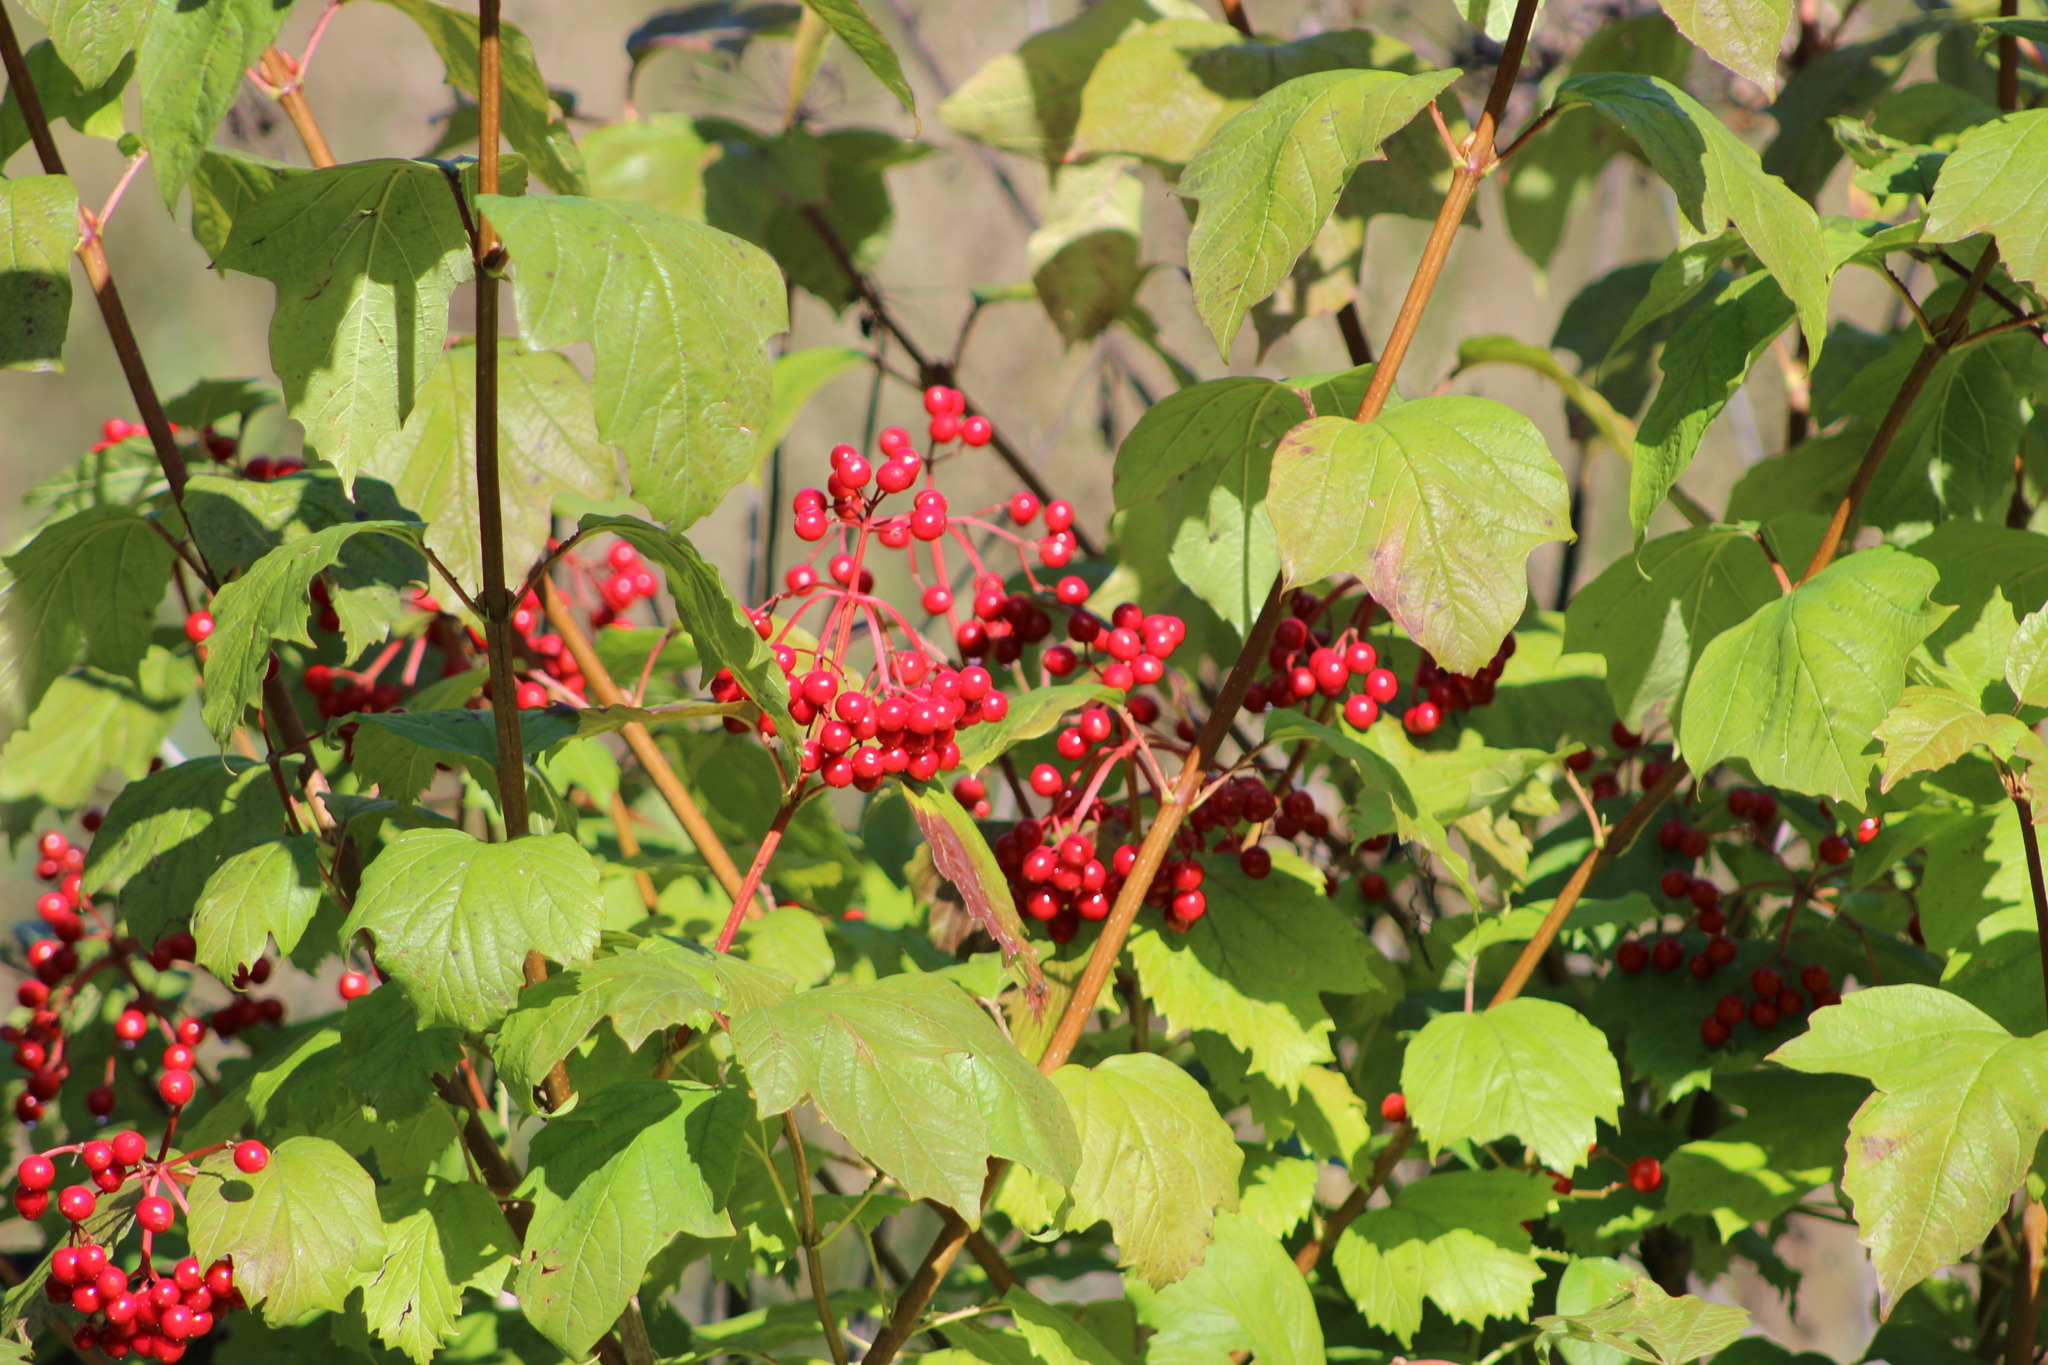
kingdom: Plantae
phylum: Tracheophyta
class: Magnoliopsida
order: Dipsacales
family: Viburnaceae
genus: Viburnum
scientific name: Viburnum opulus
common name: Guelder-rose
